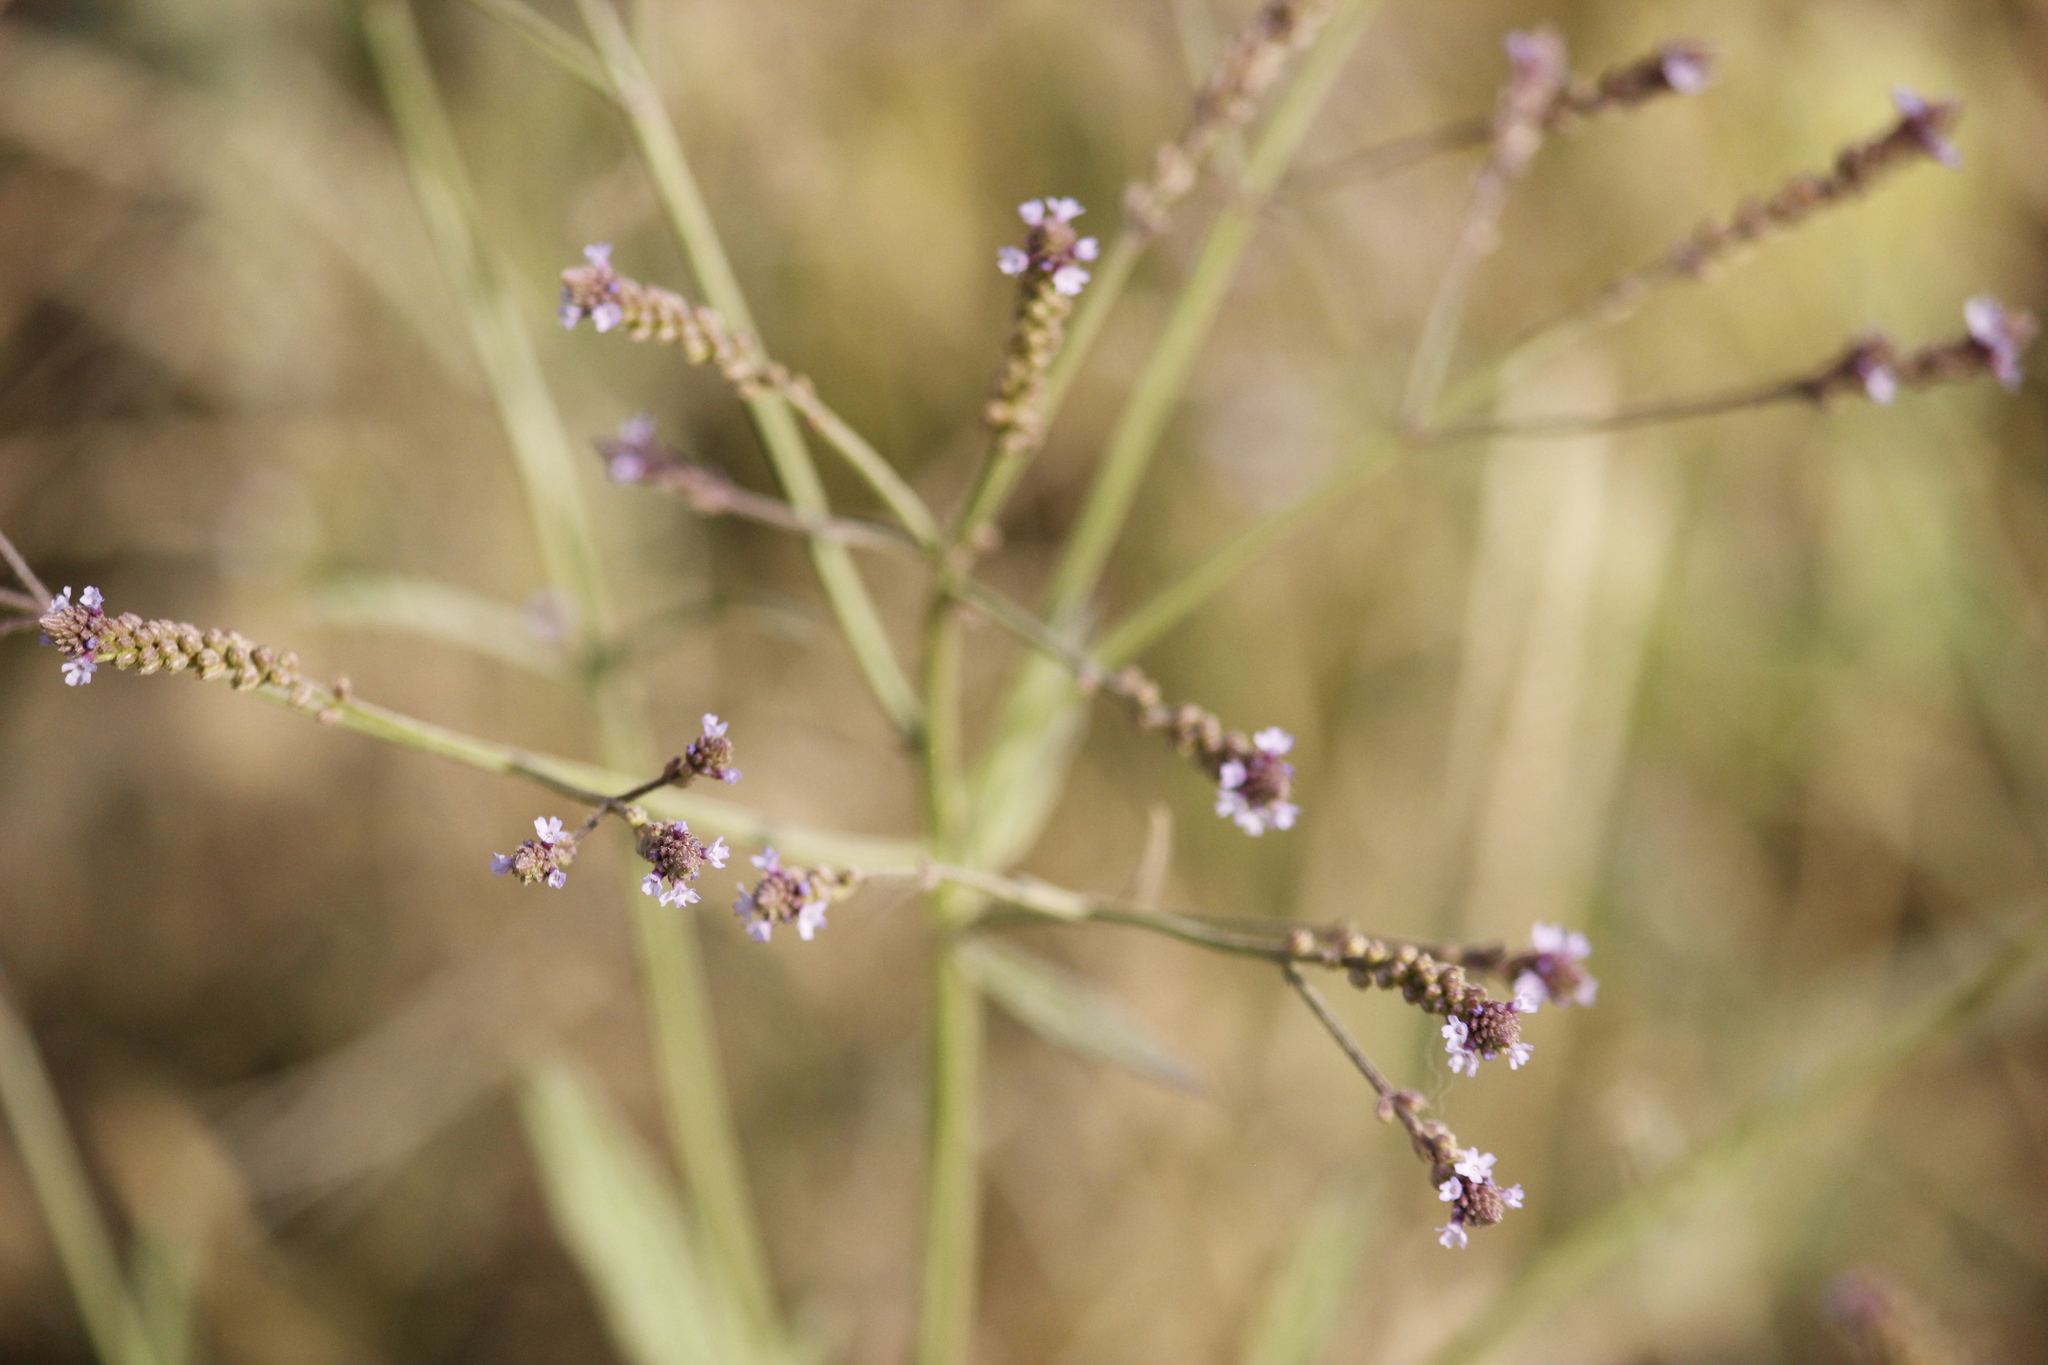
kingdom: Plantae
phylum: Tracheophyta
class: Magnoliopsida
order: Lamiales
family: Verbenaceae
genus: Verbena
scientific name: Verbena litoralis
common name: Seashore vervain
